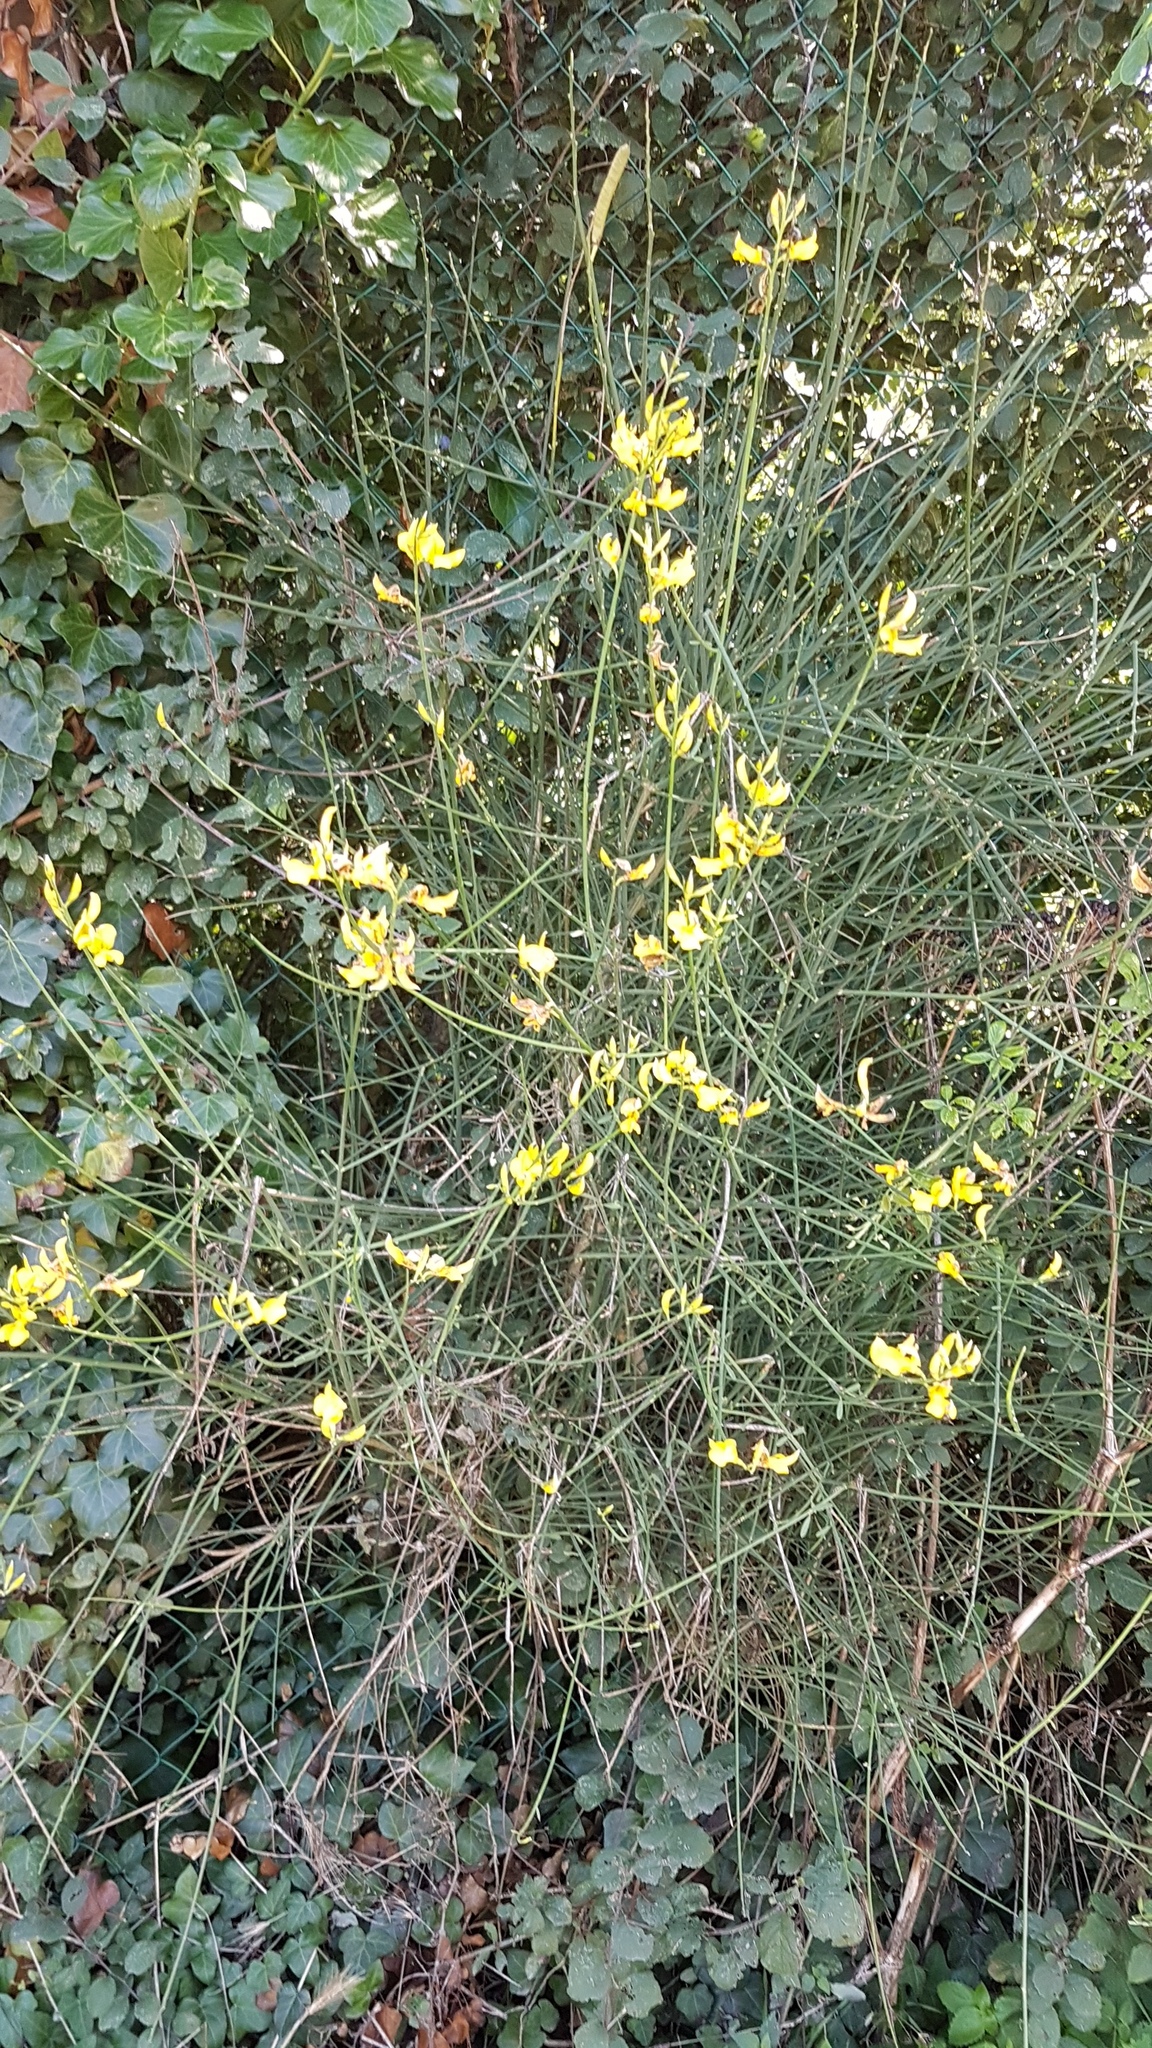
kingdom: Plantae
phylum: Tracheophyta
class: Magnoliopsida
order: Fabales
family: Fabaceae
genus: Spartium
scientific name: Spartium junceum
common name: Spanish broom
